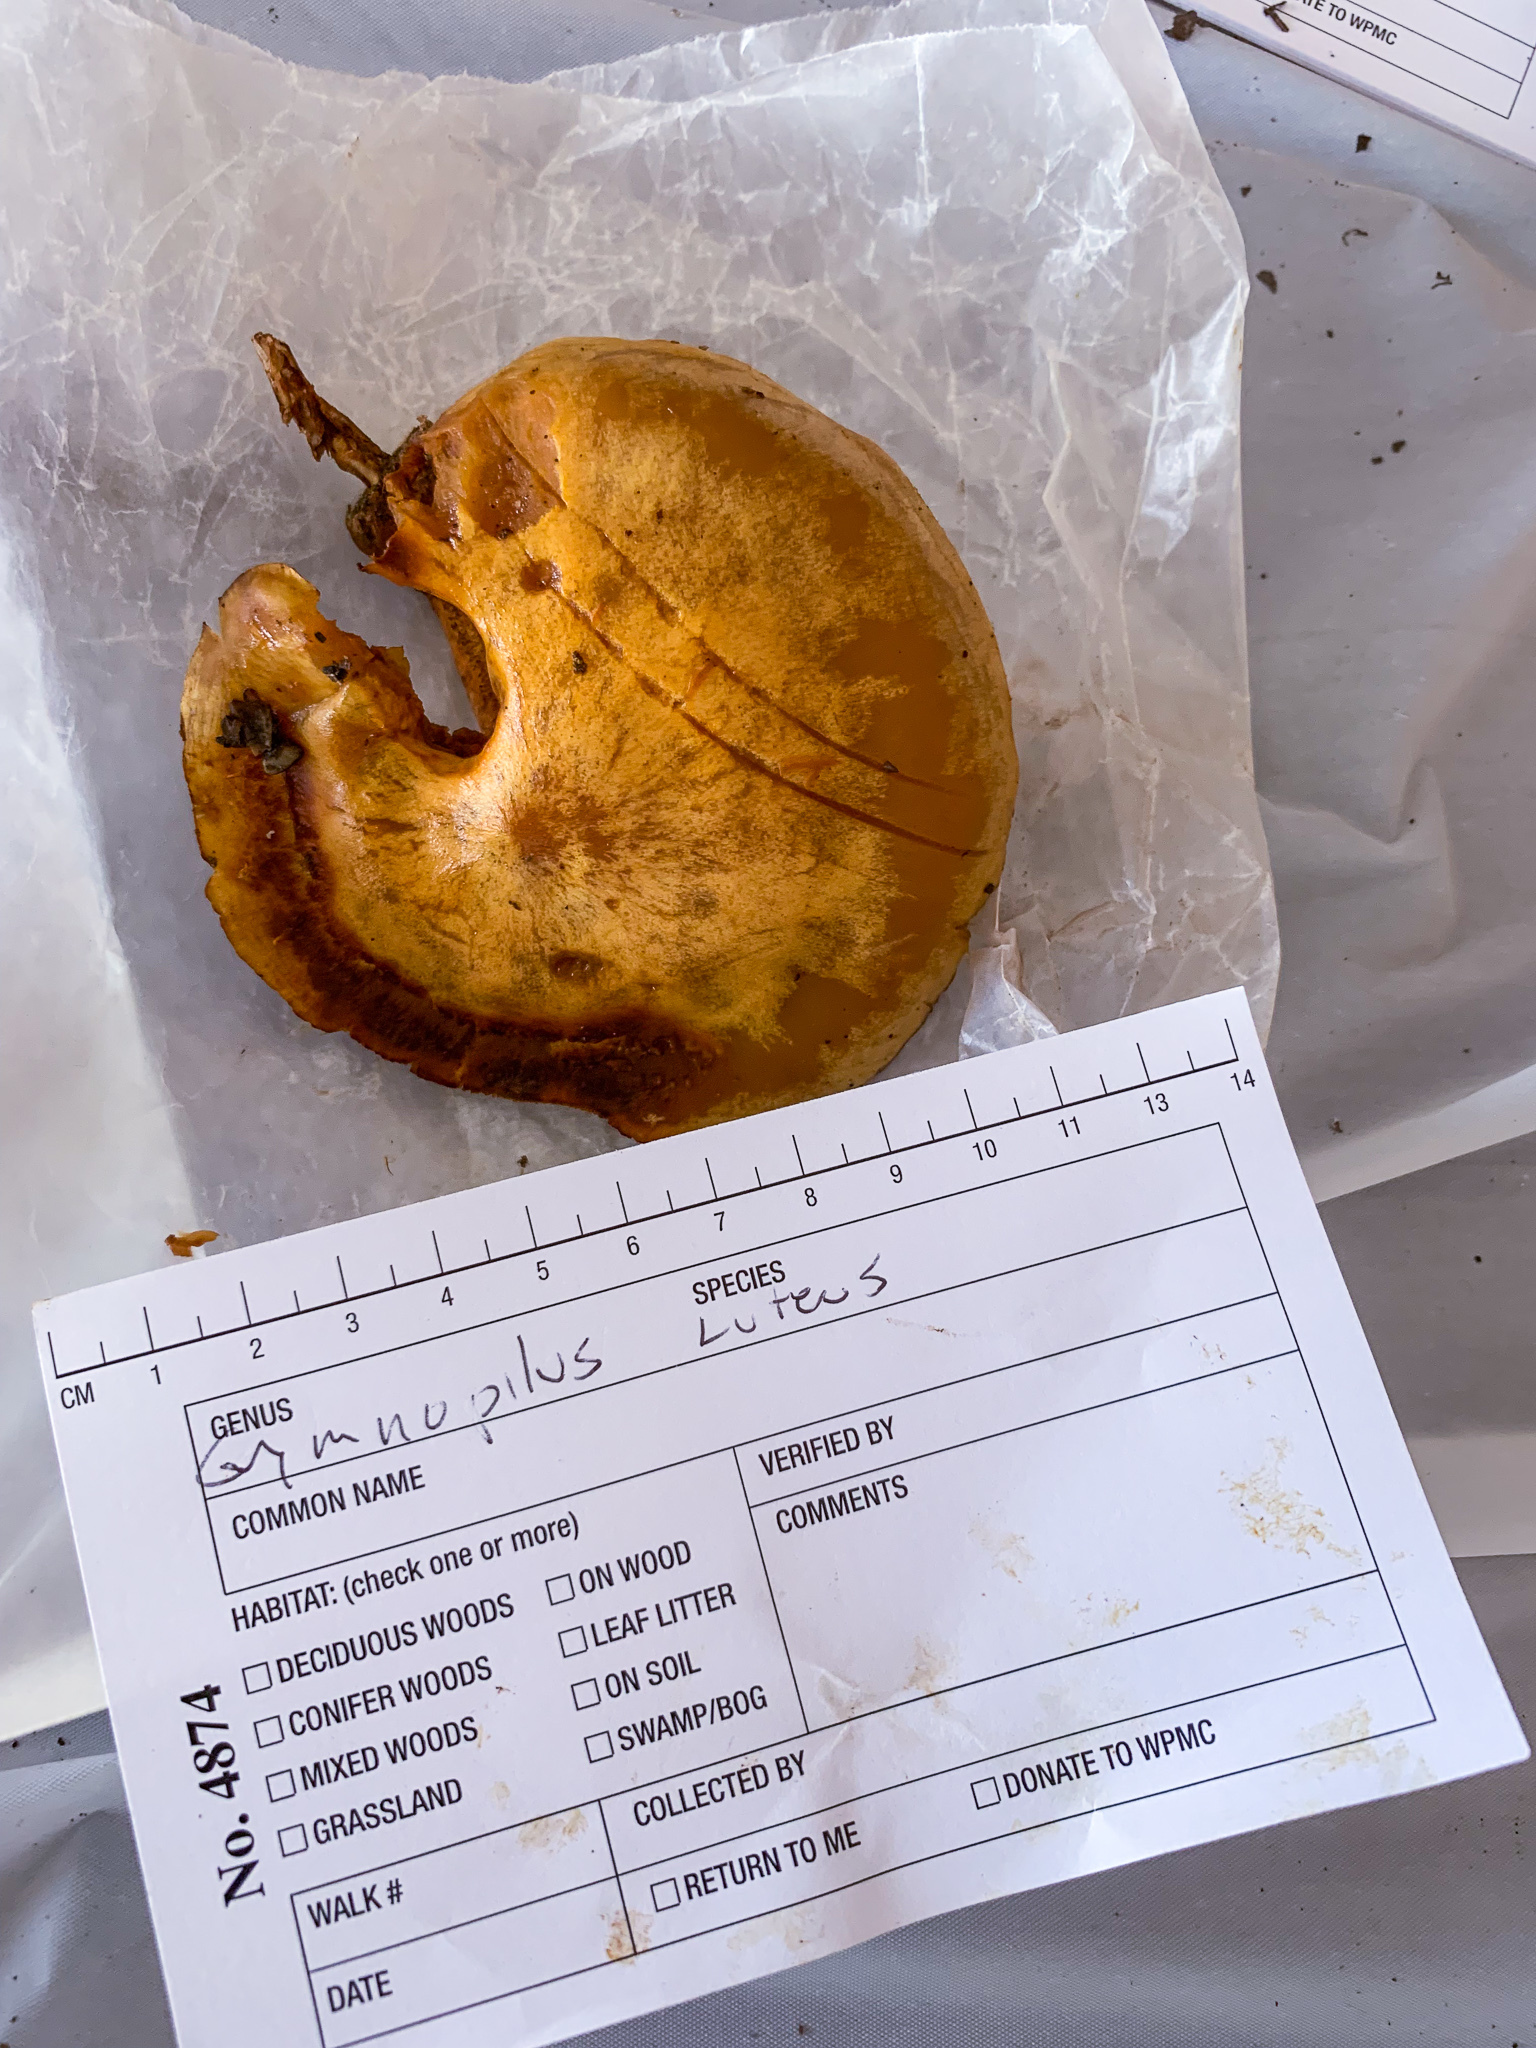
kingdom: Fungi
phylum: Basidiomycota
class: Agaricomycetes
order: Agaricales
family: Hymenogastraceae
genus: Gymnopilus
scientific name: Gymnopilus luteus
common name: Yellow gymnopilus
